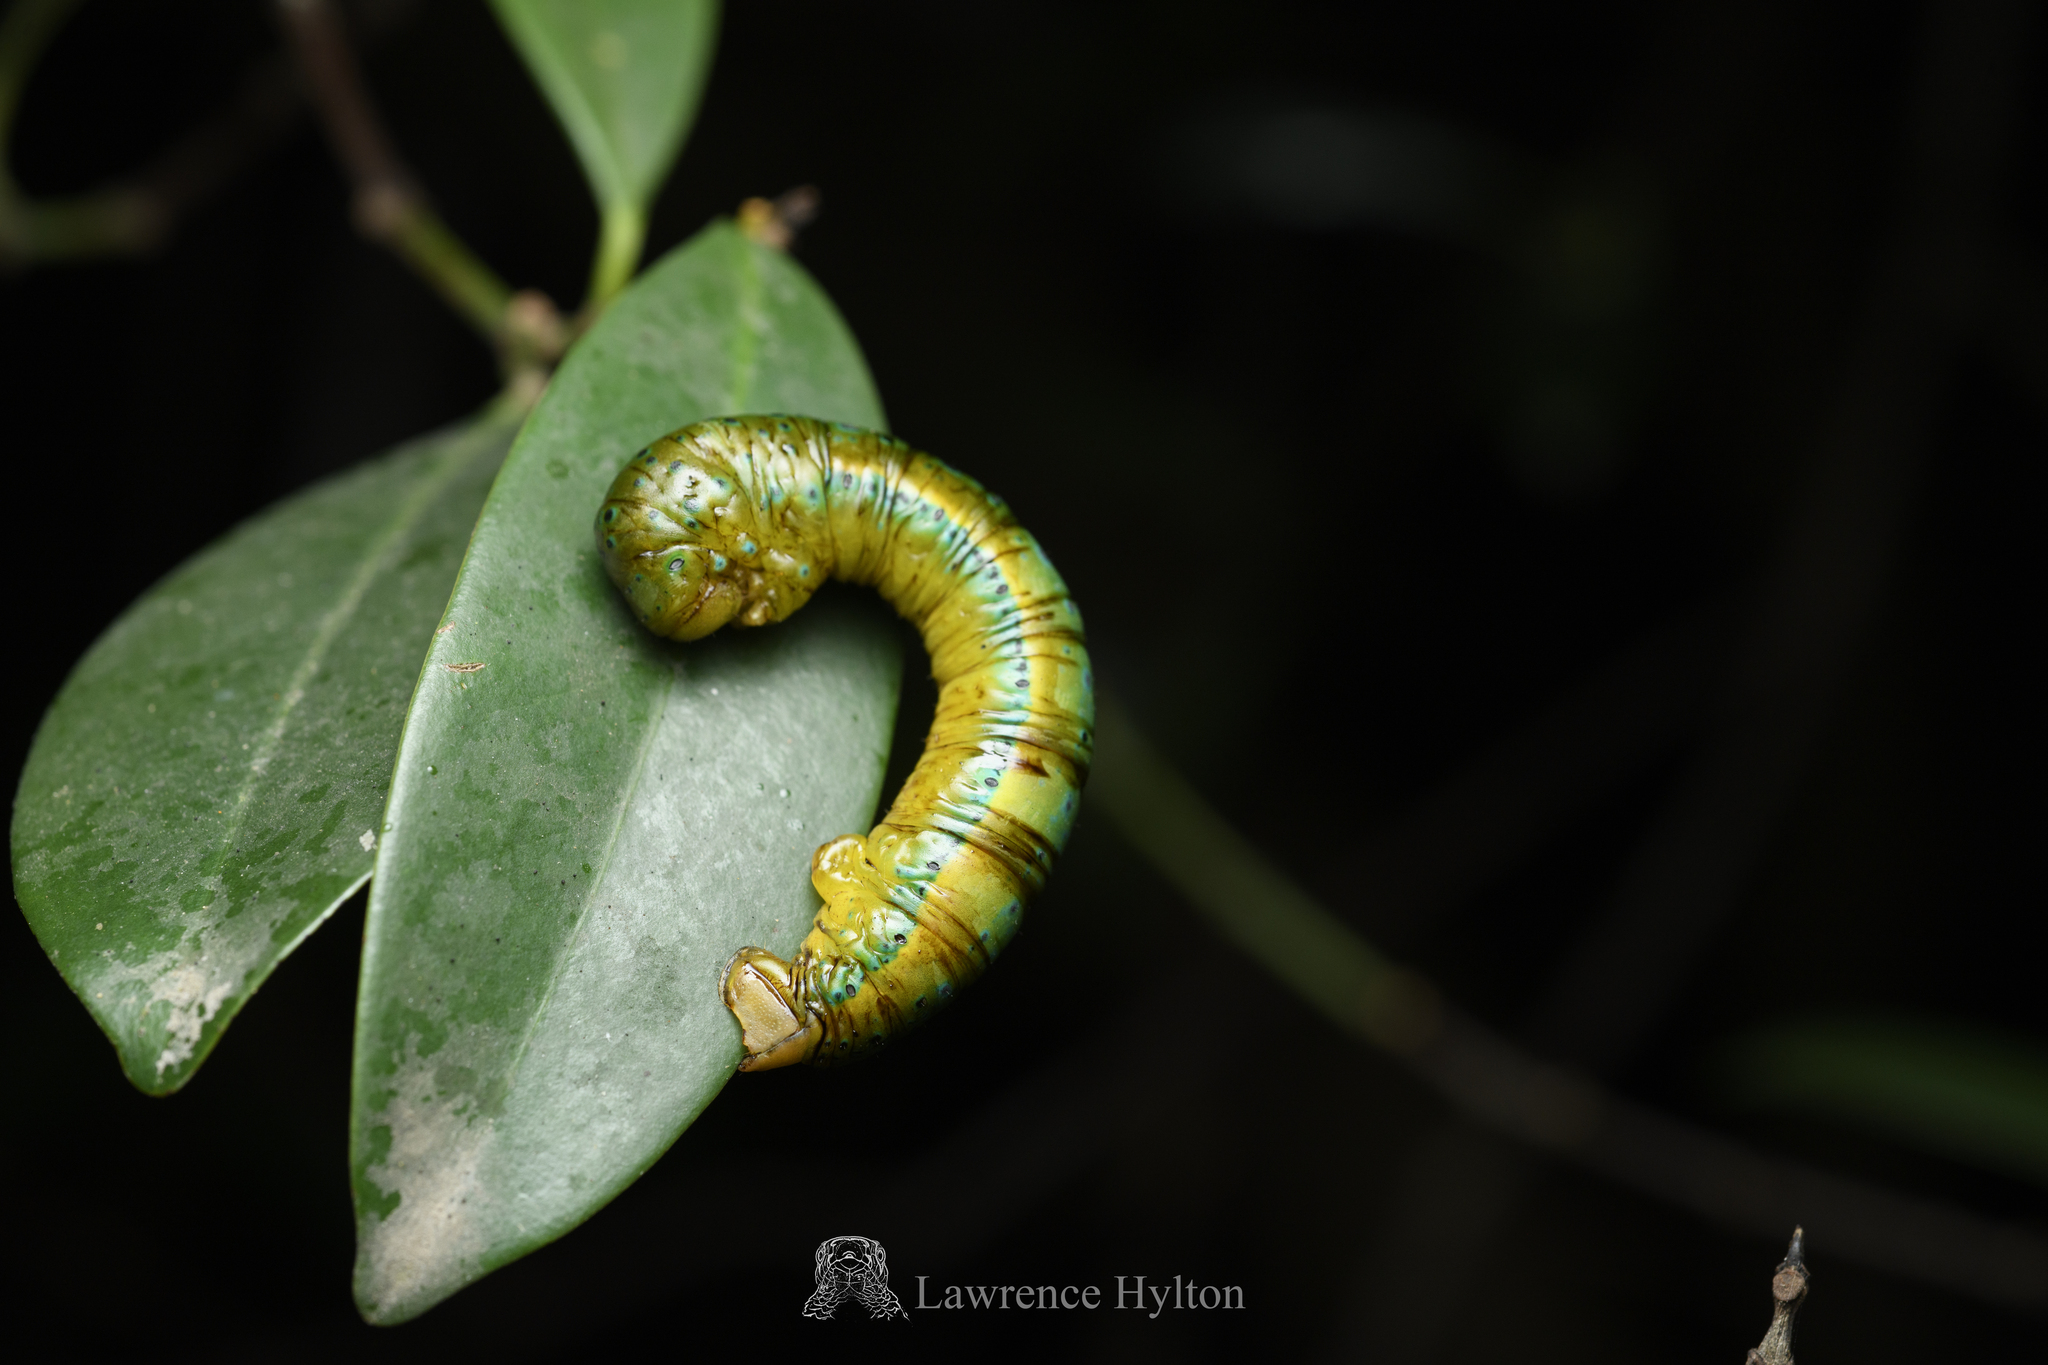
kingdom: Animalia
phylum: Arthropoda
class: Insecta
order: Lepidoptera
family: Geometridae
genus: Dysphania
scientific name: Dysphania militaris
